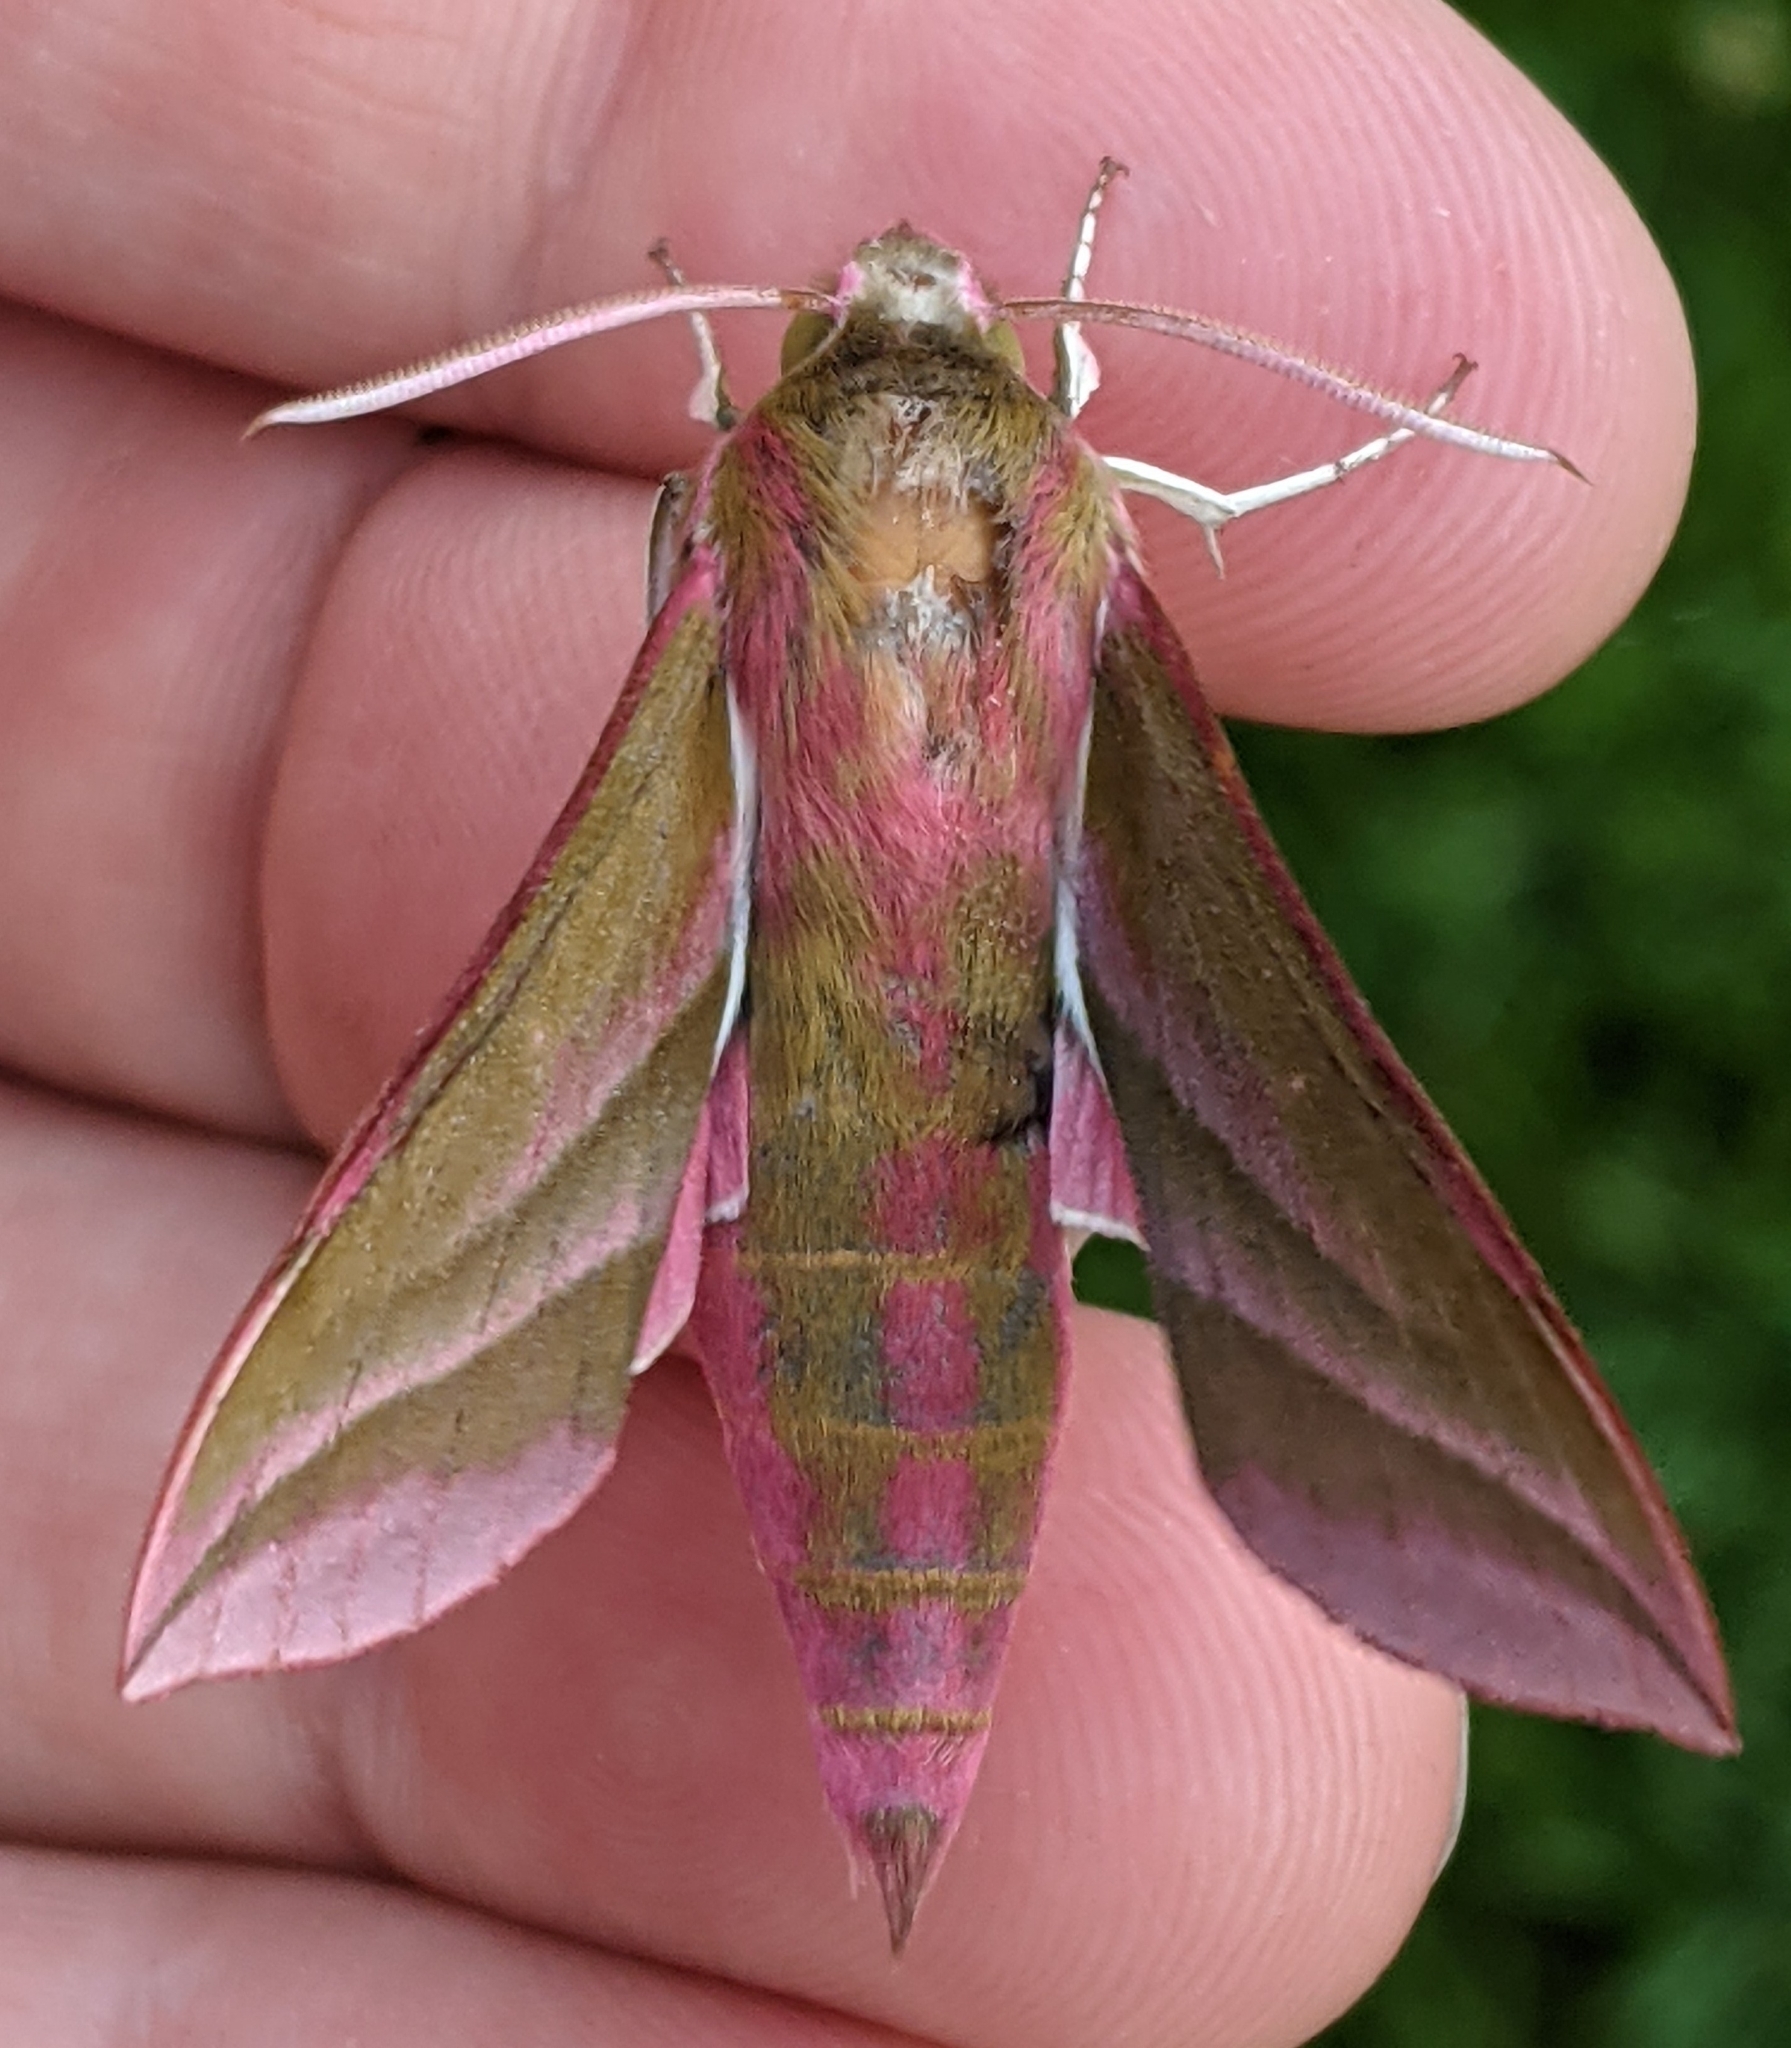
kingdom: Animalia
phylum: Arthropoda
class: Insecta
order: Lepidoptera
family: Sphingidae
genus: Deilephila
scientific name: Deilephila elpenor
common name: Elephant hawk-moth
